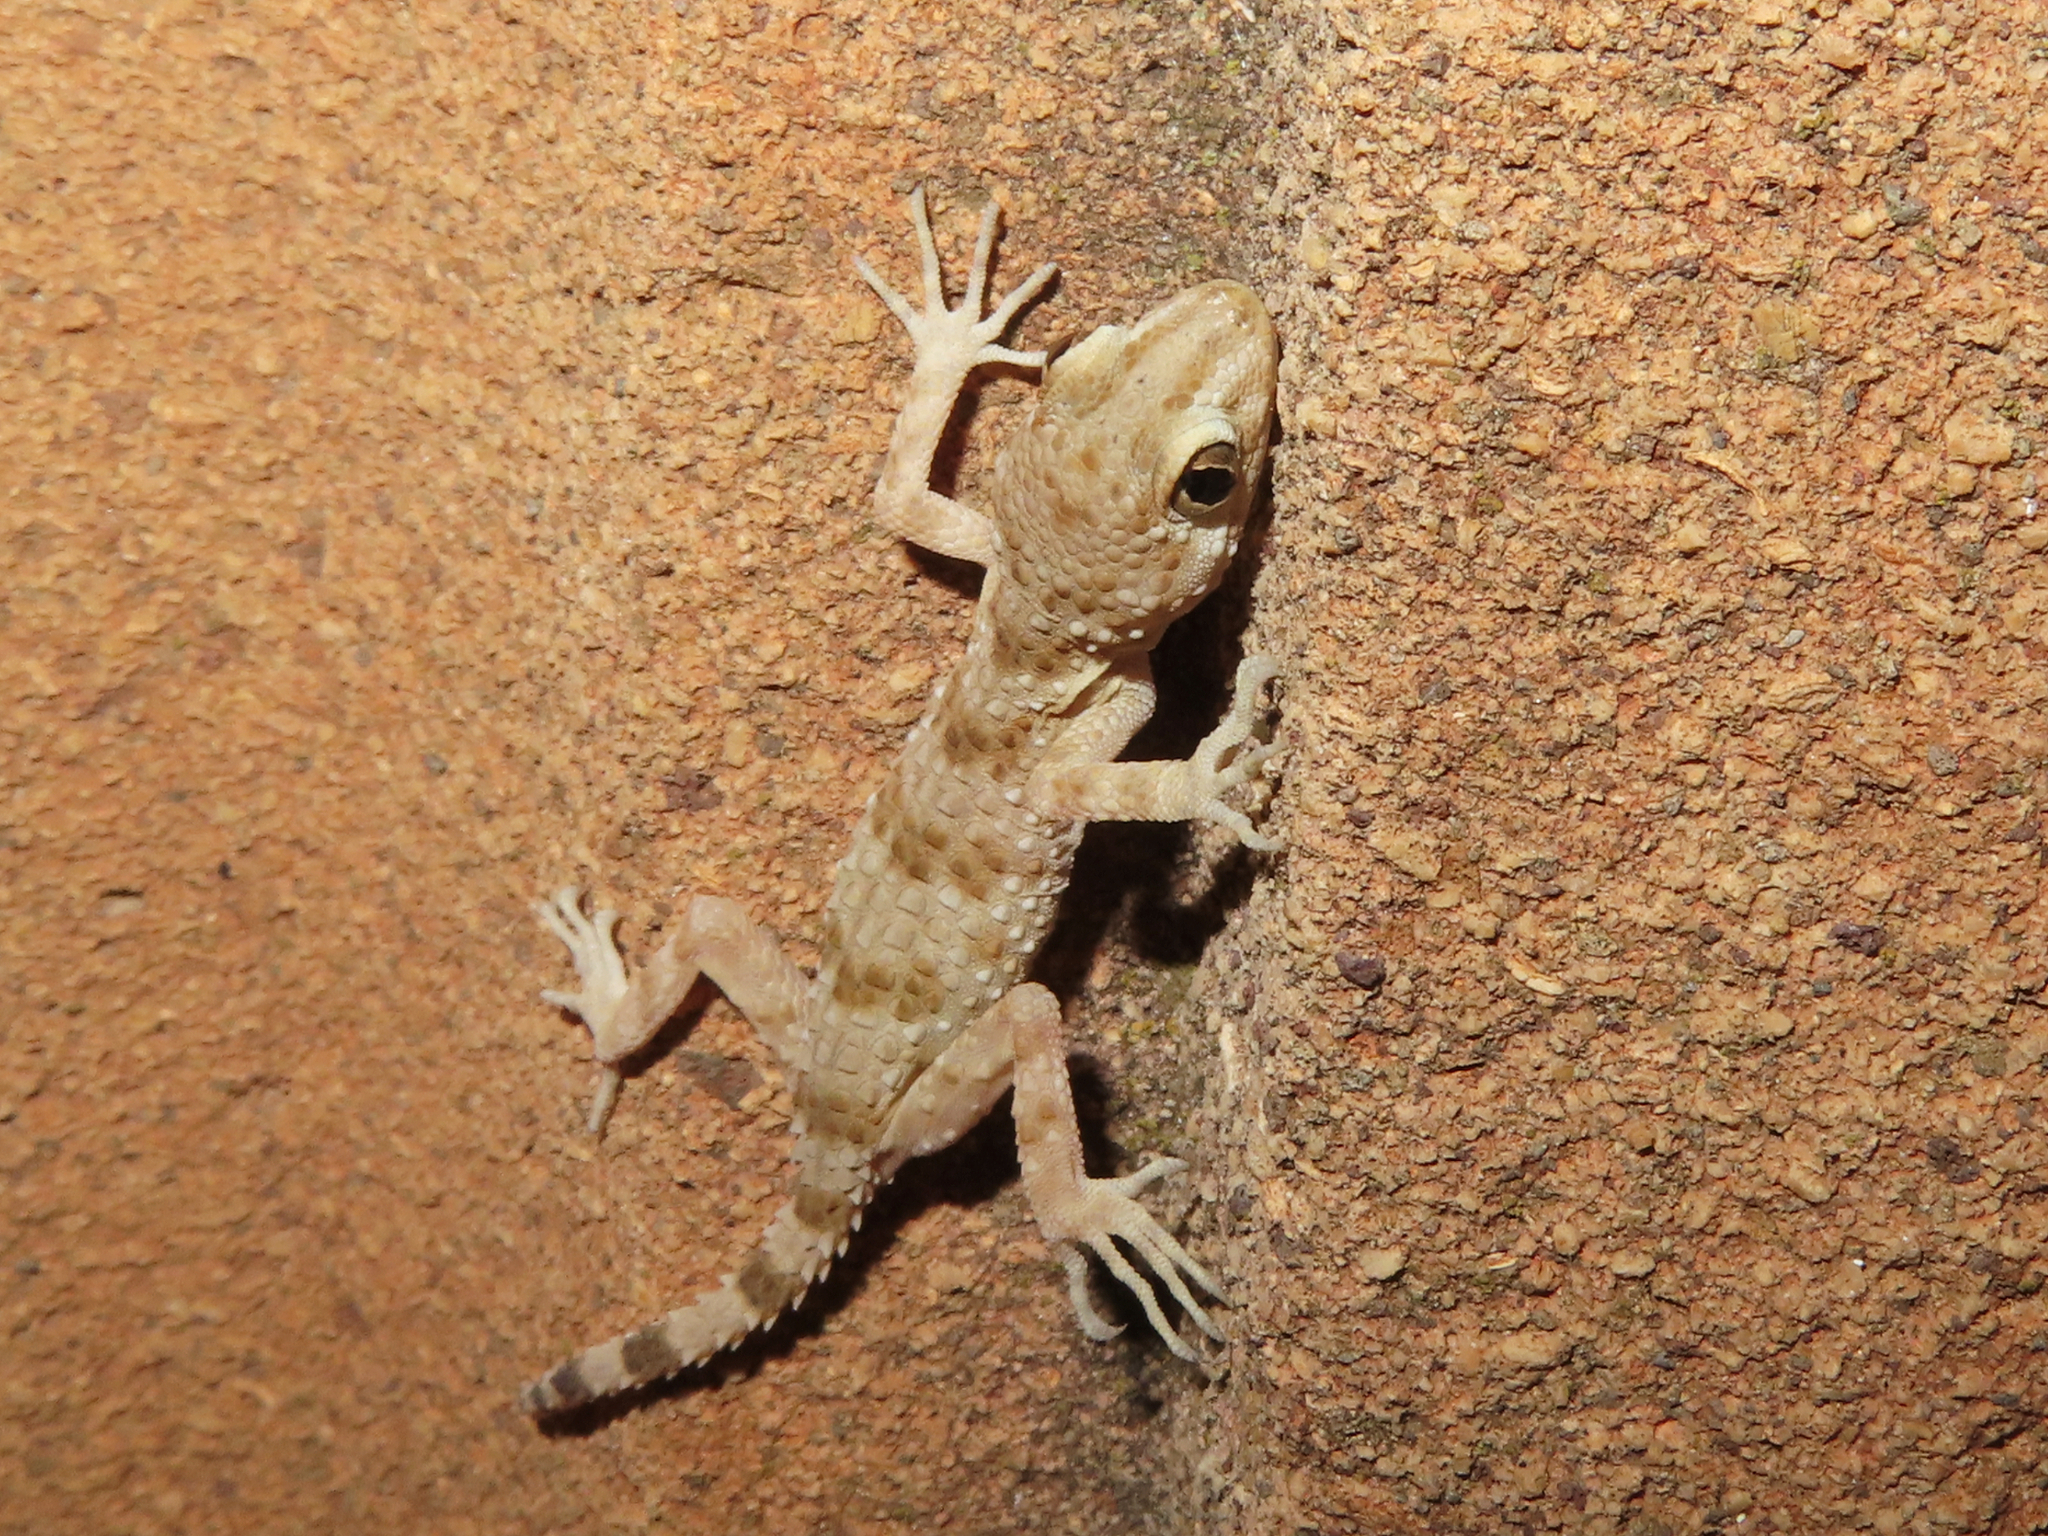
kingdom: Animalia
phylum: Chordata
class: Squamata
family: Gekkonidae
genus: Tenuidactylus
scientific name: Tenuidactylus caspius
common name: Caspian bent-toed gecko
